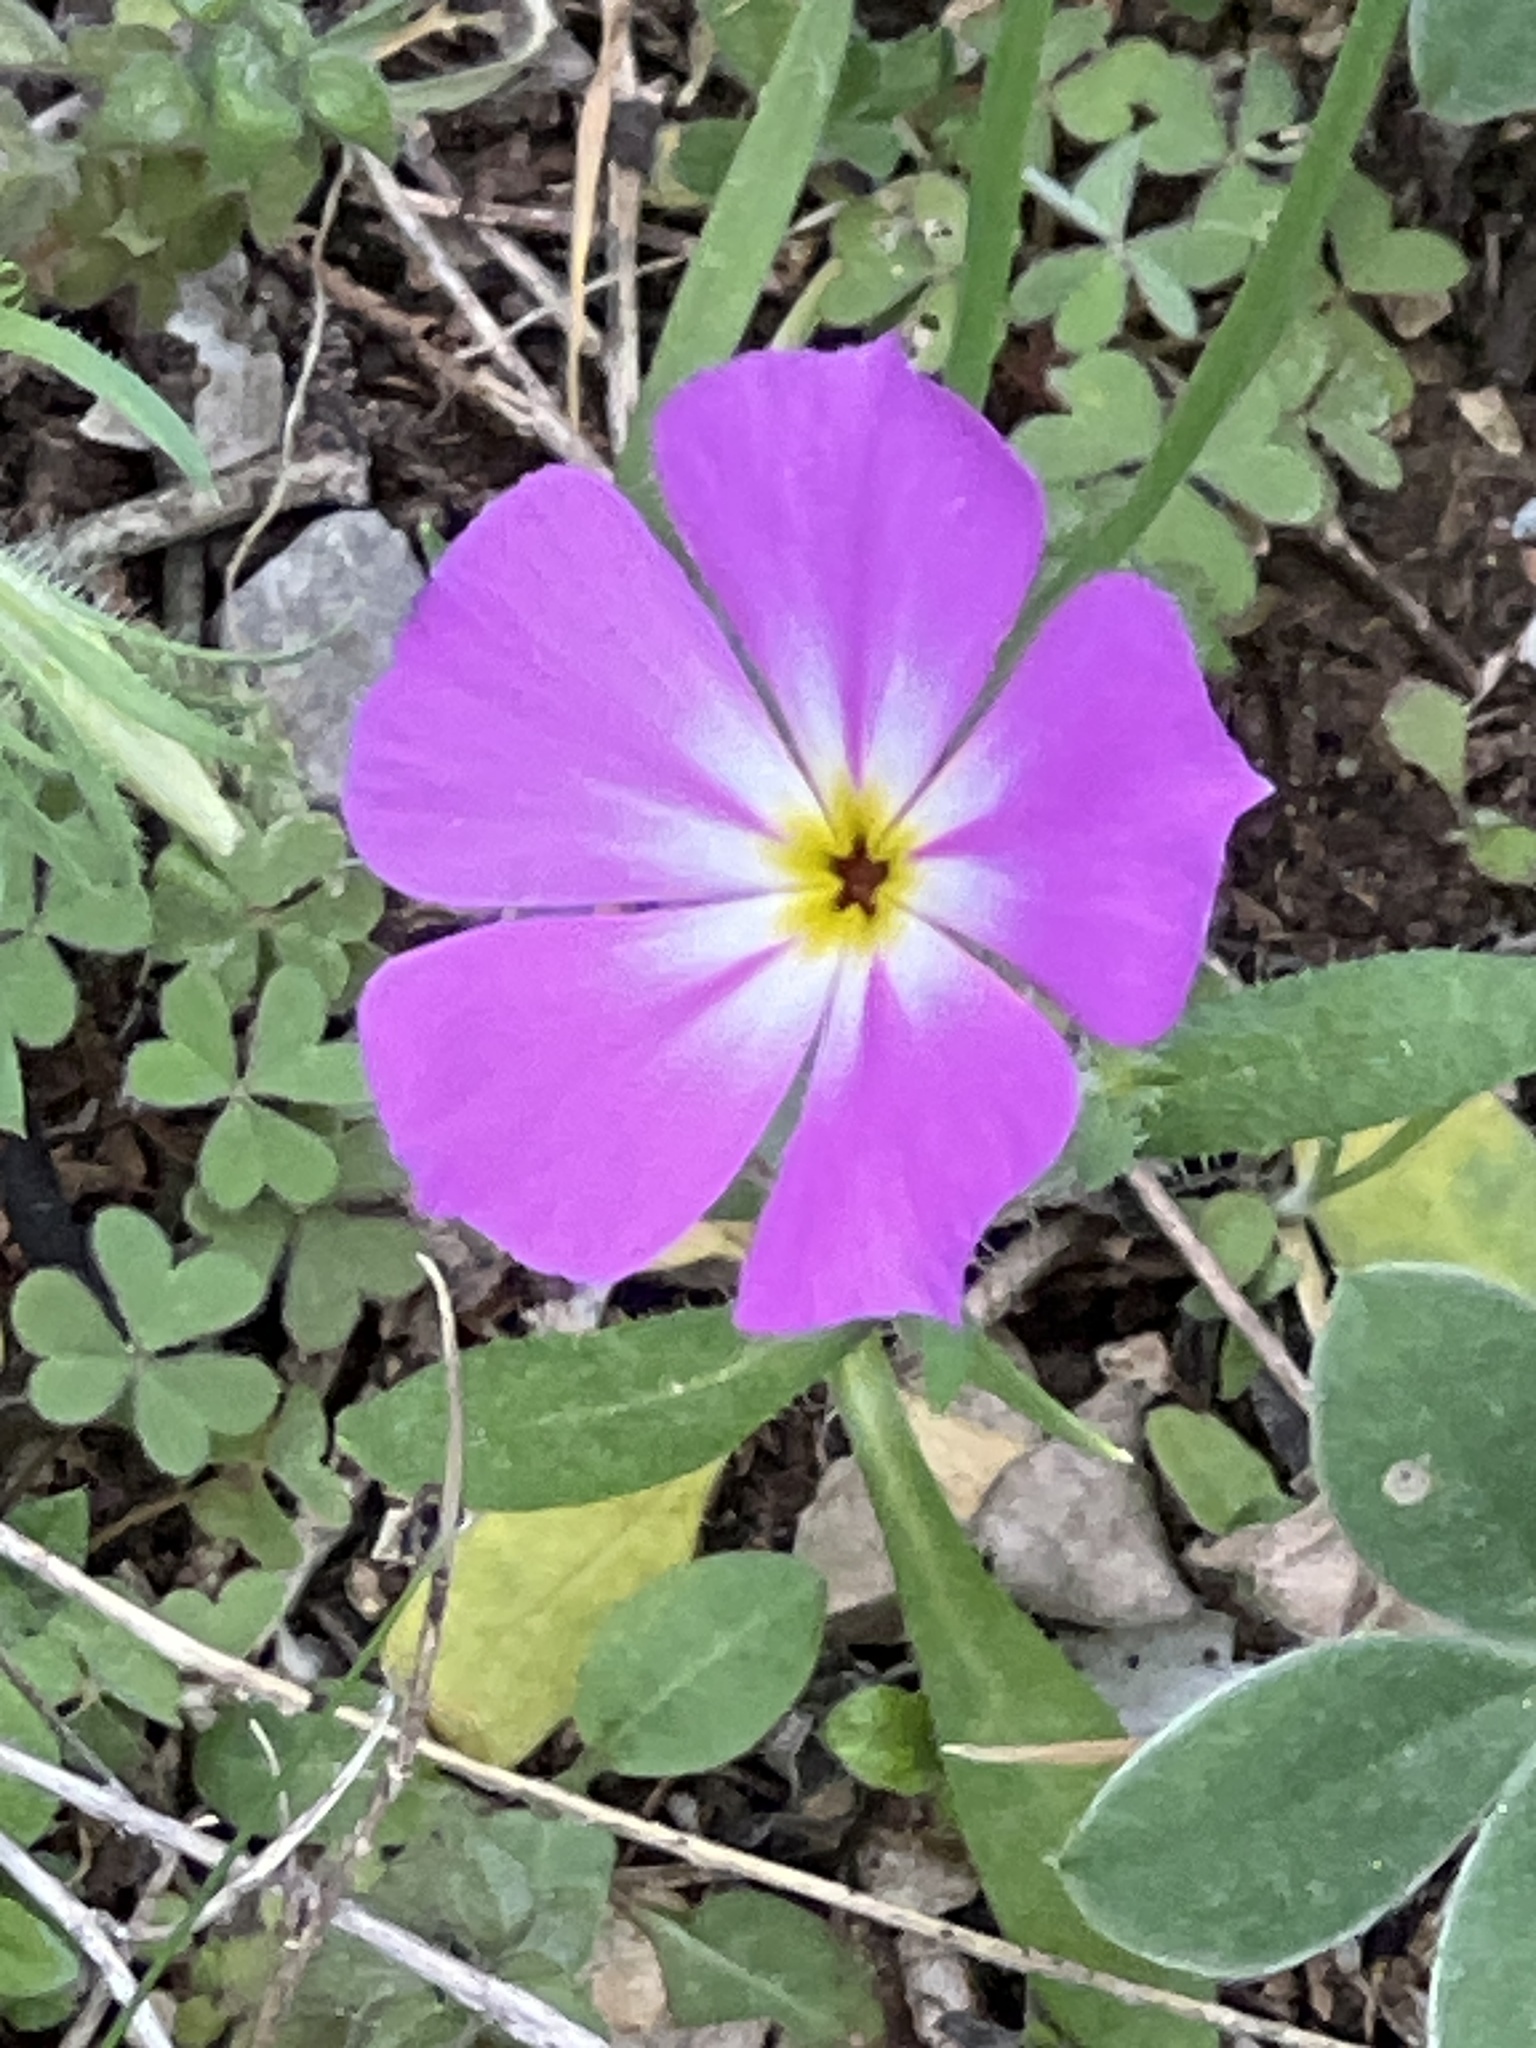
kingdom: Plantae
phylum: Tracheophyta
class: Magnoliopsida
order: Ericales
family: Polemoniaceae
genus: Phlox
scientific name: Phlox roemeriana
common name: Roemer's phlox
